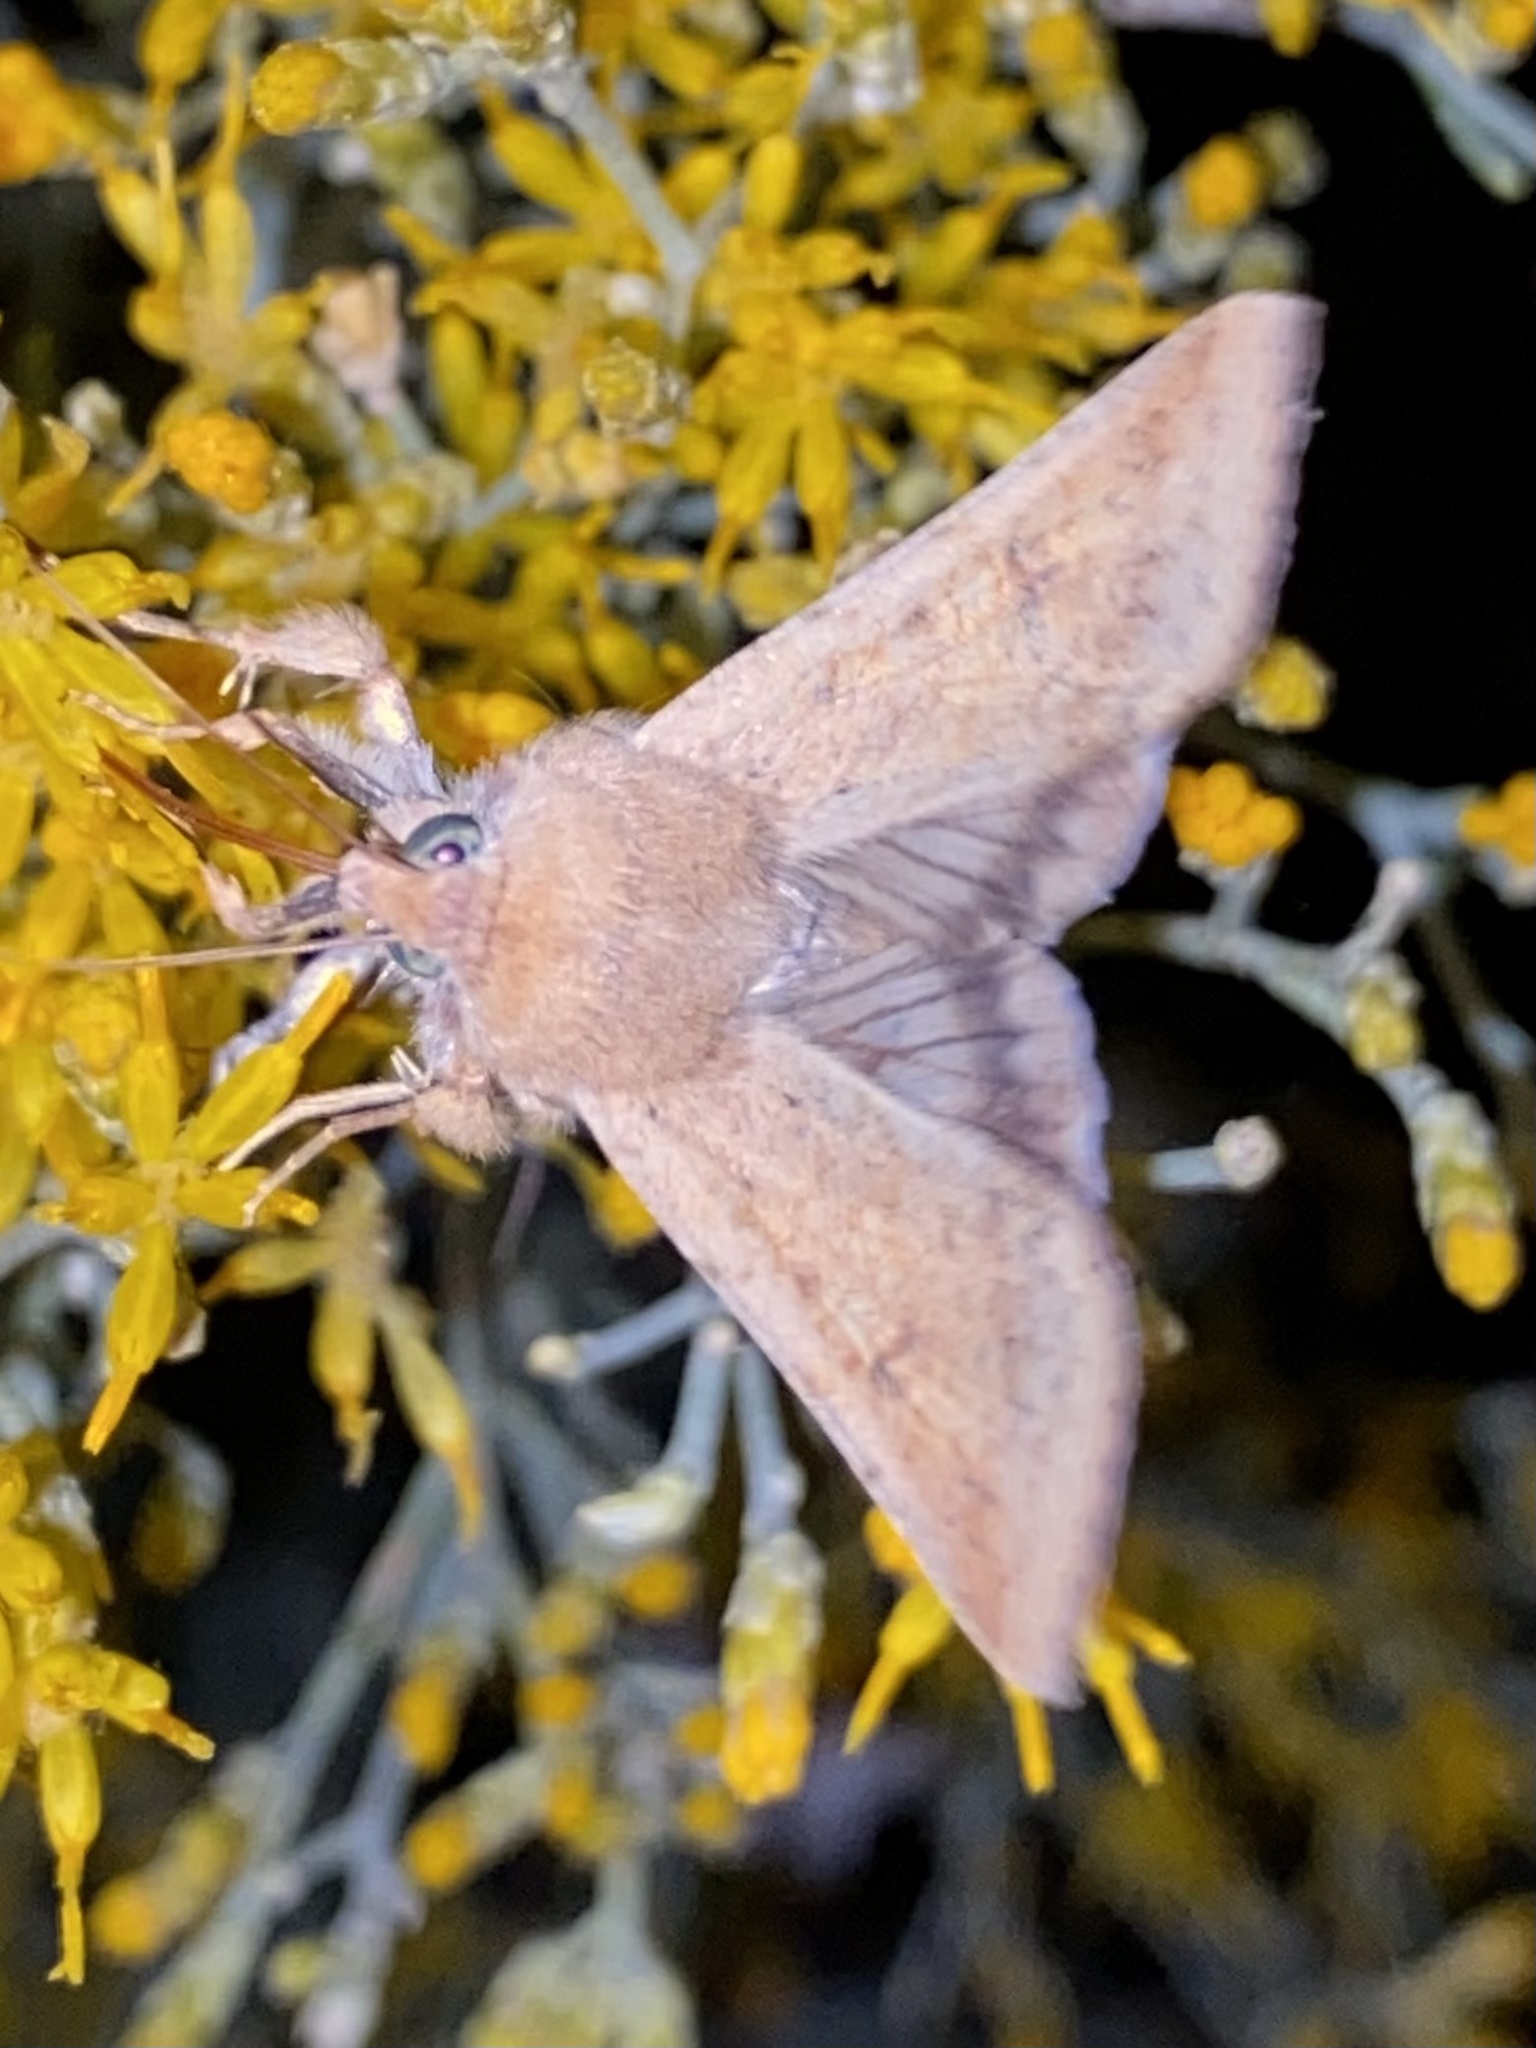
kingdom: Animalia
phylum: Arthropoda
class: Insecta
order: Lepidoptera
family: Noctuidae
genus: Helicoverpa
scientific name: Helicoverpa zea
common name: Bollworm
